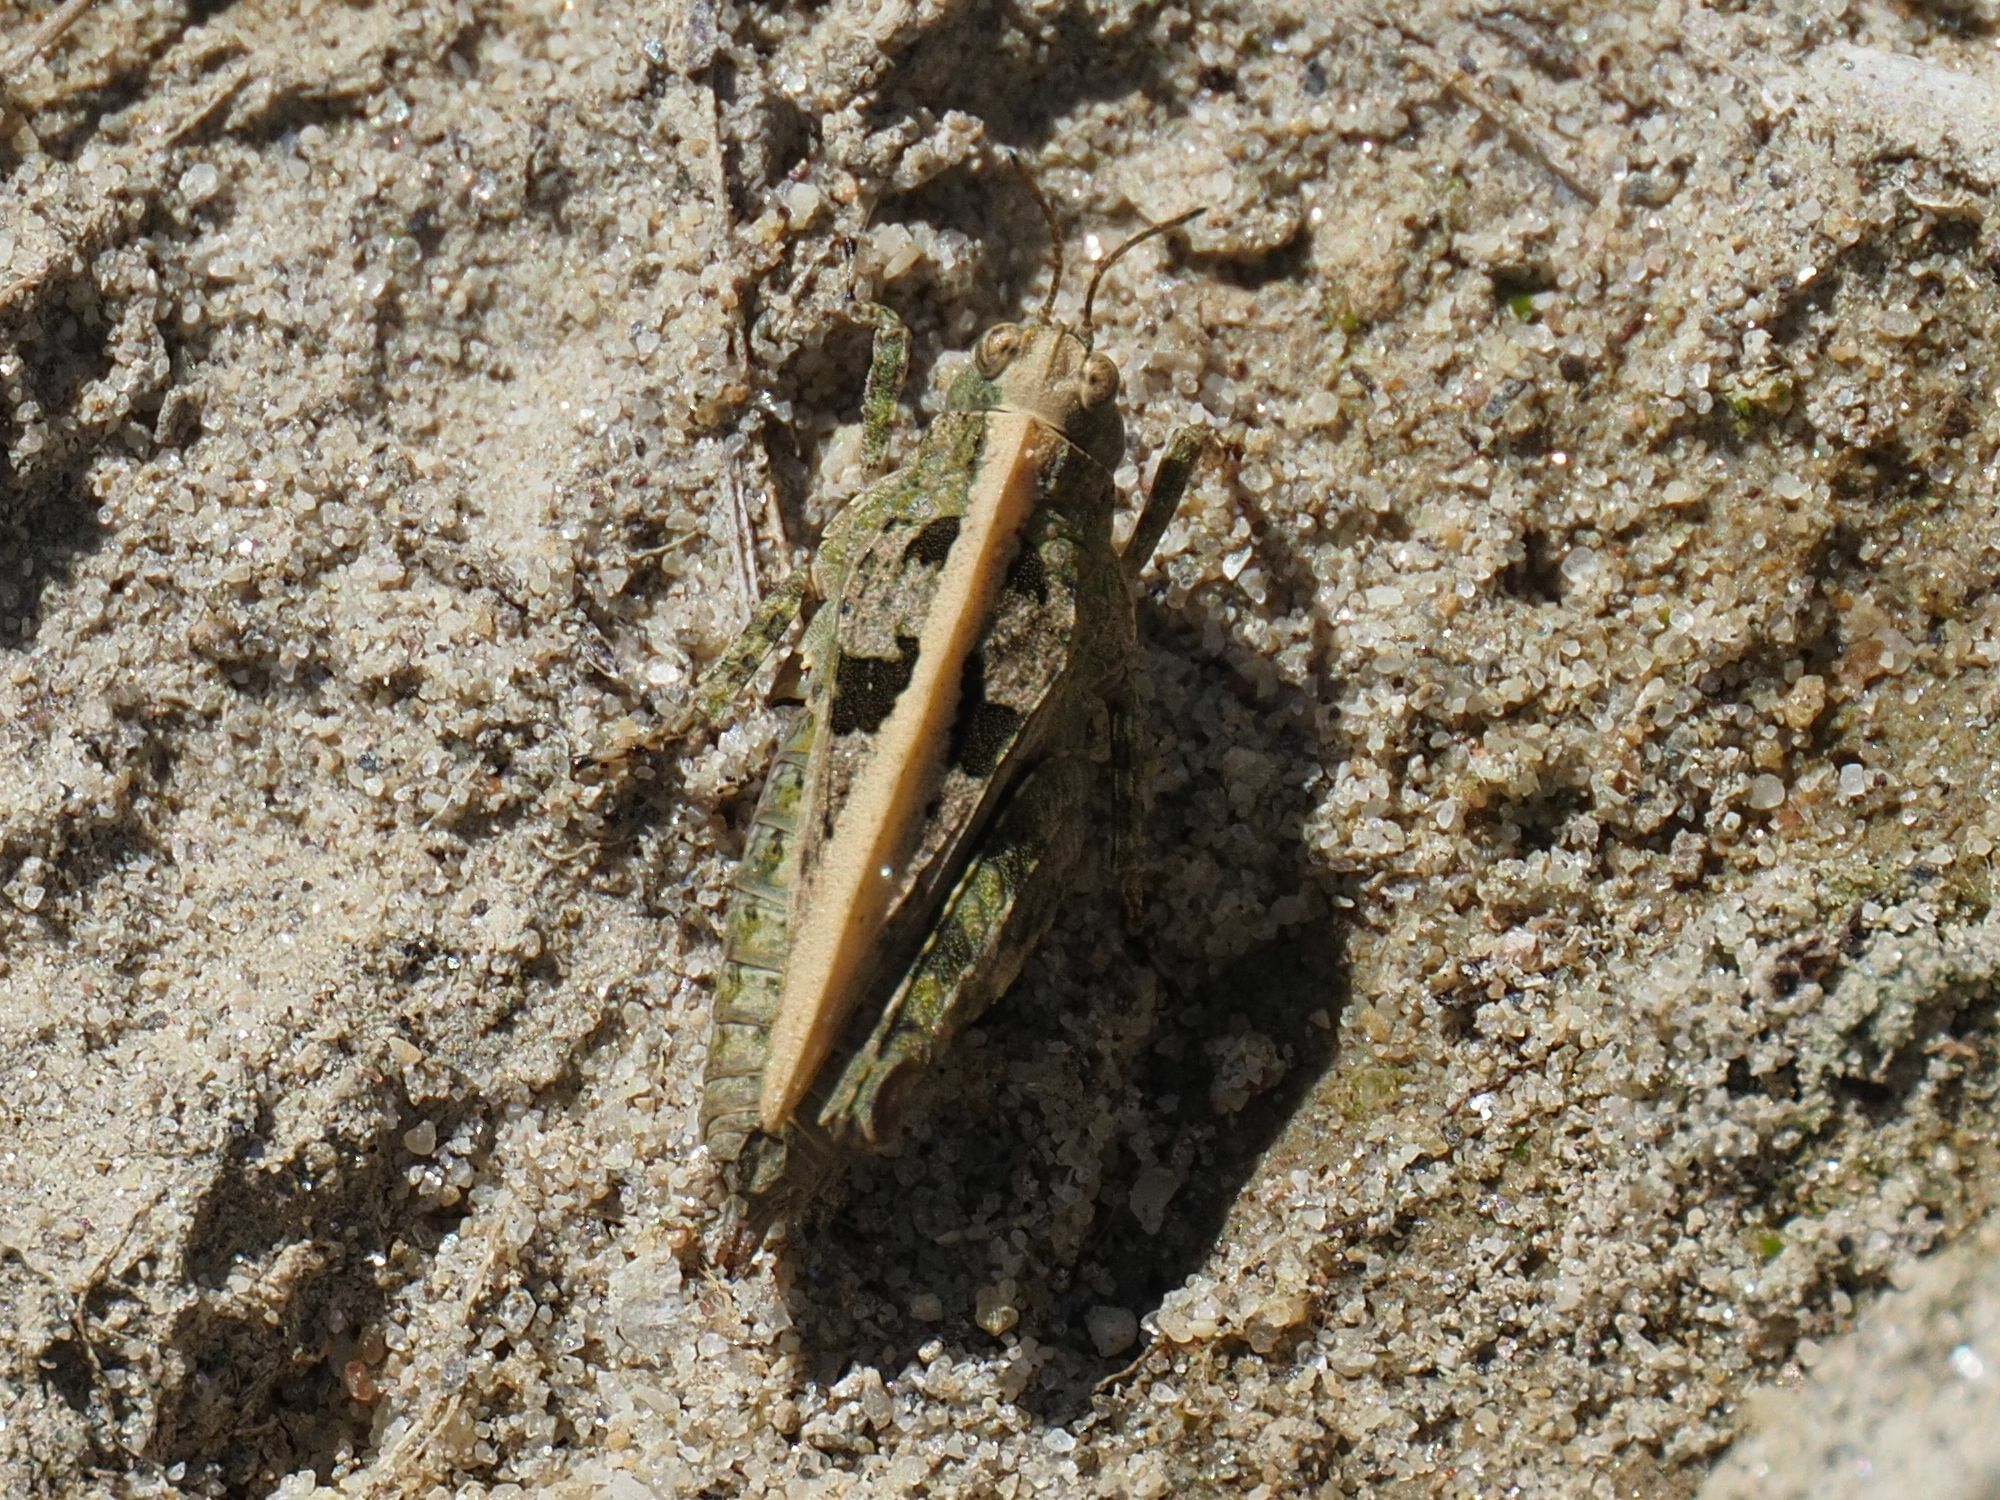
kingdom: Animalia
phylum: Arthropoda
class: Insecta
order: Orthoptera
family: Tetrigidae
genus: Tetrix
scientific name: Tetrix tenuicornis
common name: Long-horned groundhopper
